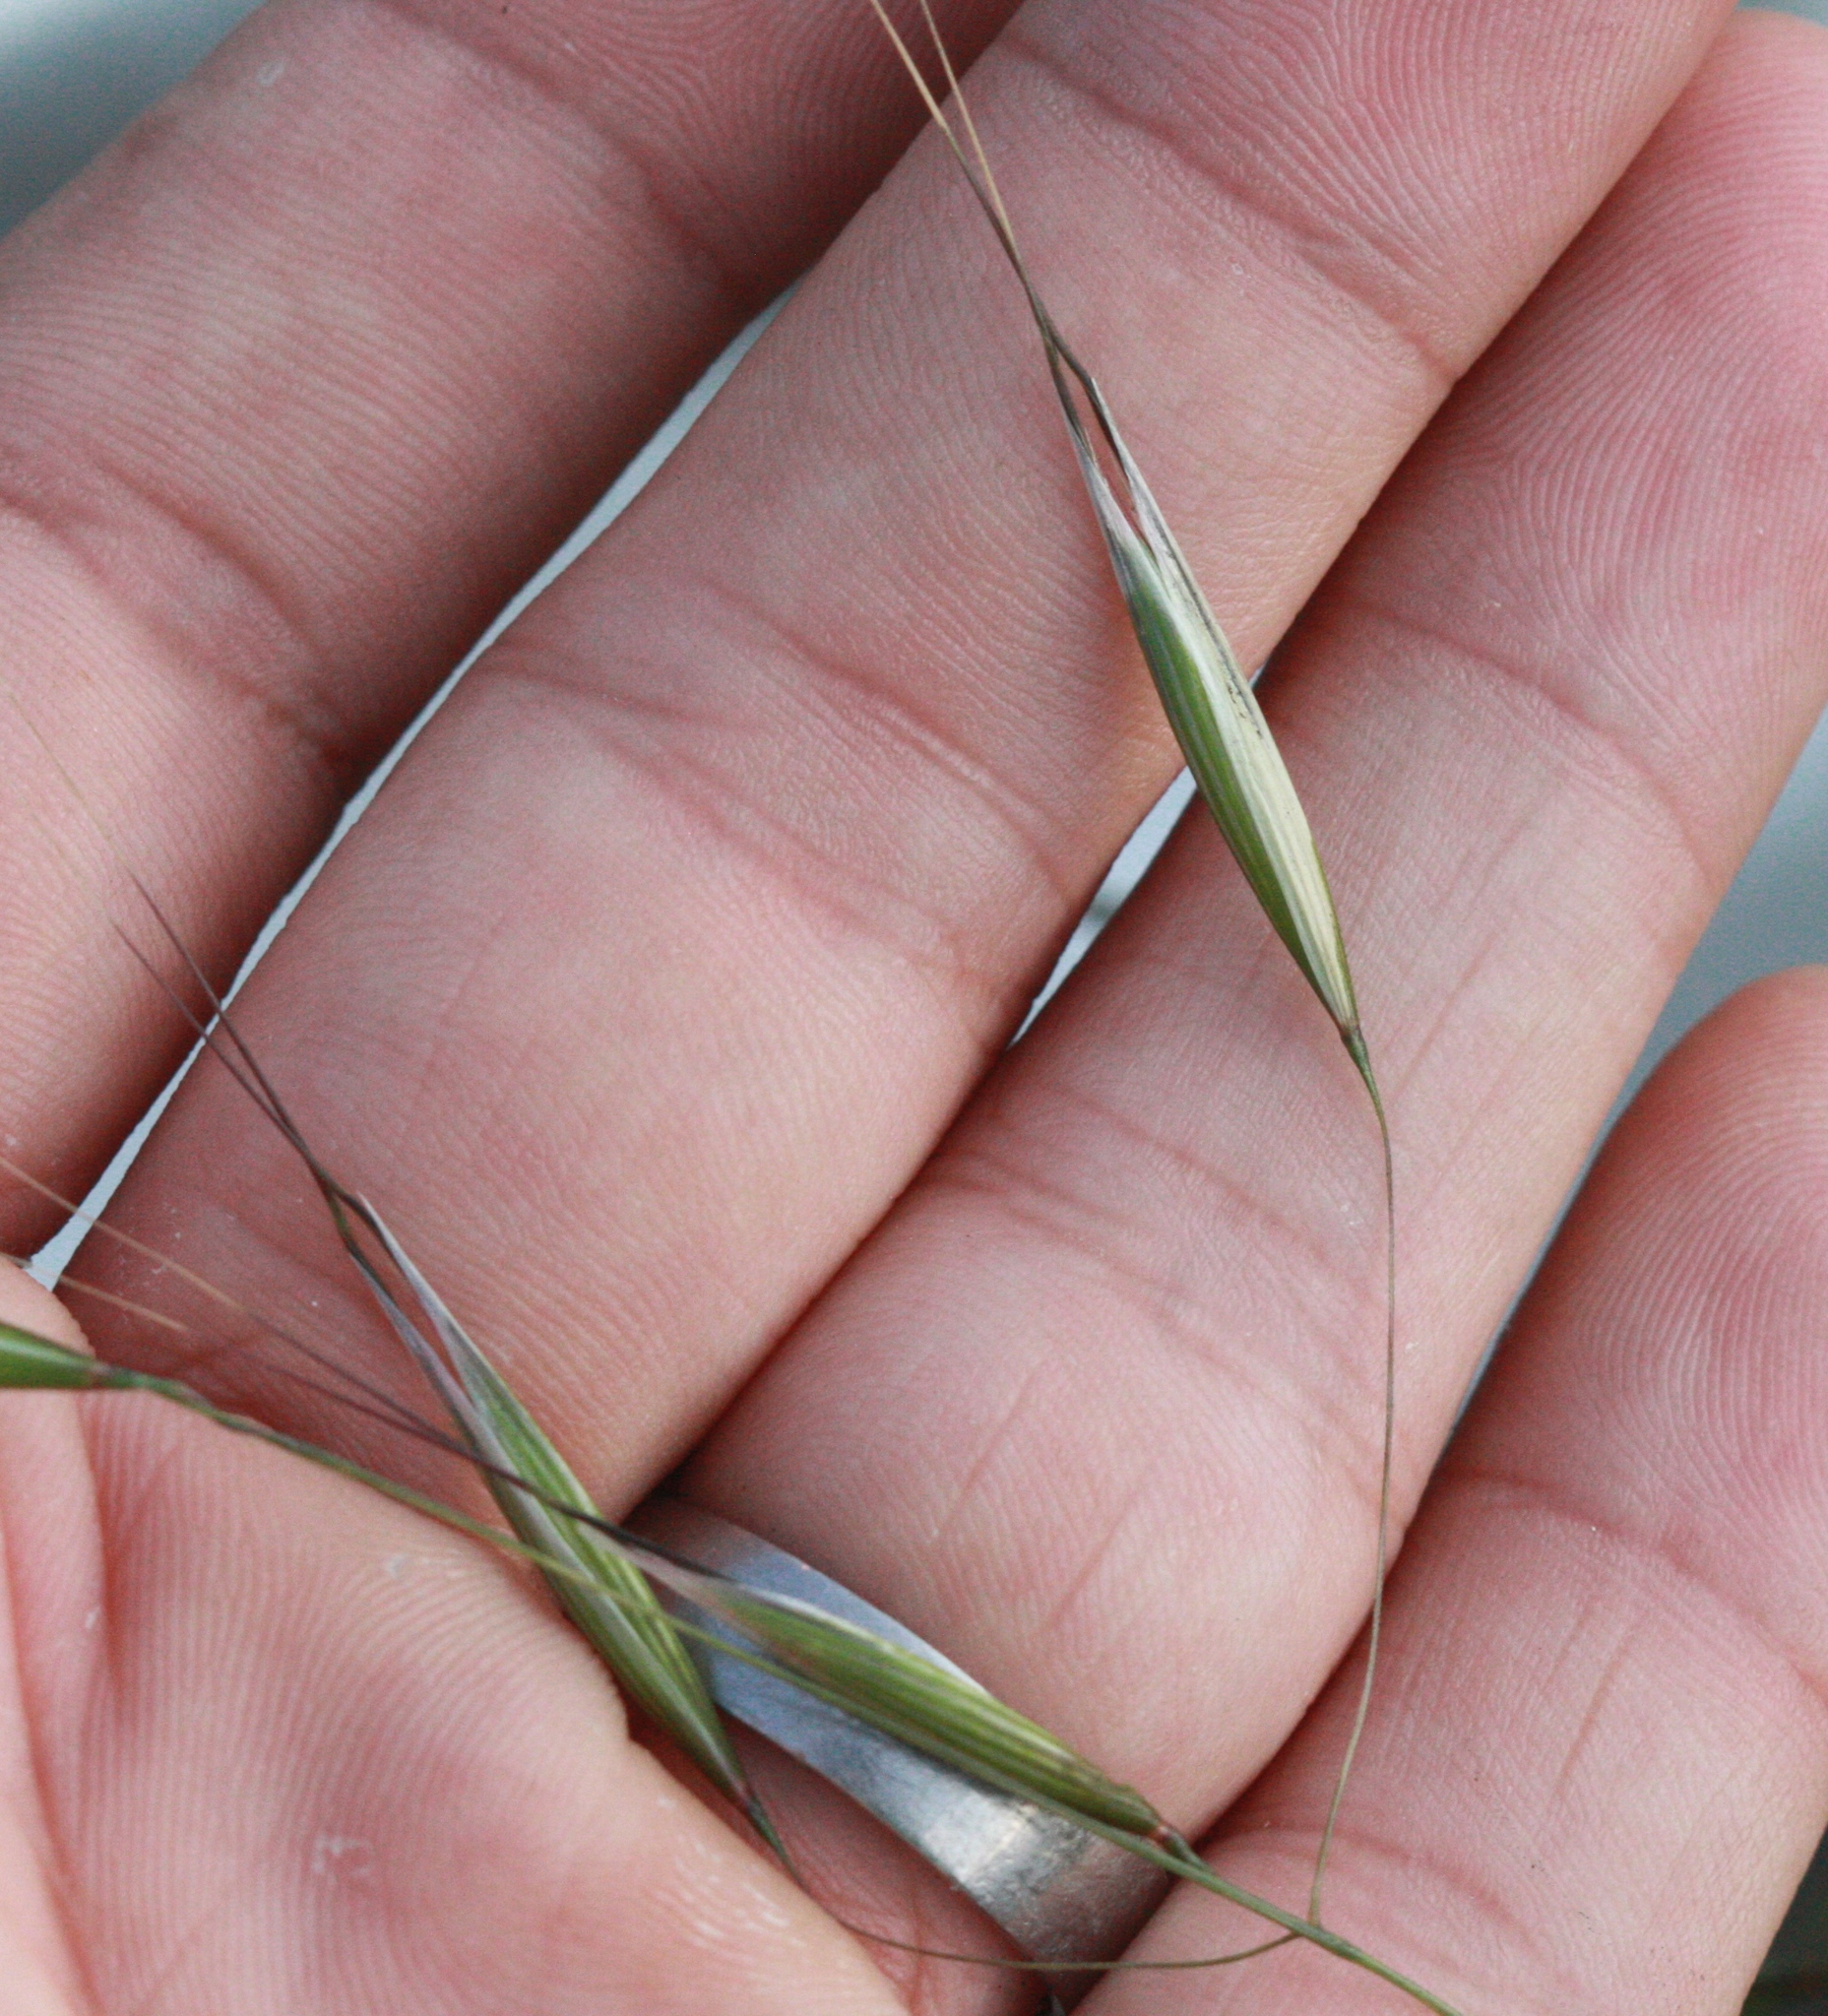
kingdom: Plantae
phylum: Tracheophyta
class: Liliopsida
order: Poales
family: Poaceae
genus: Avena
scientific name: Avena barbata
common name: Slender oat
